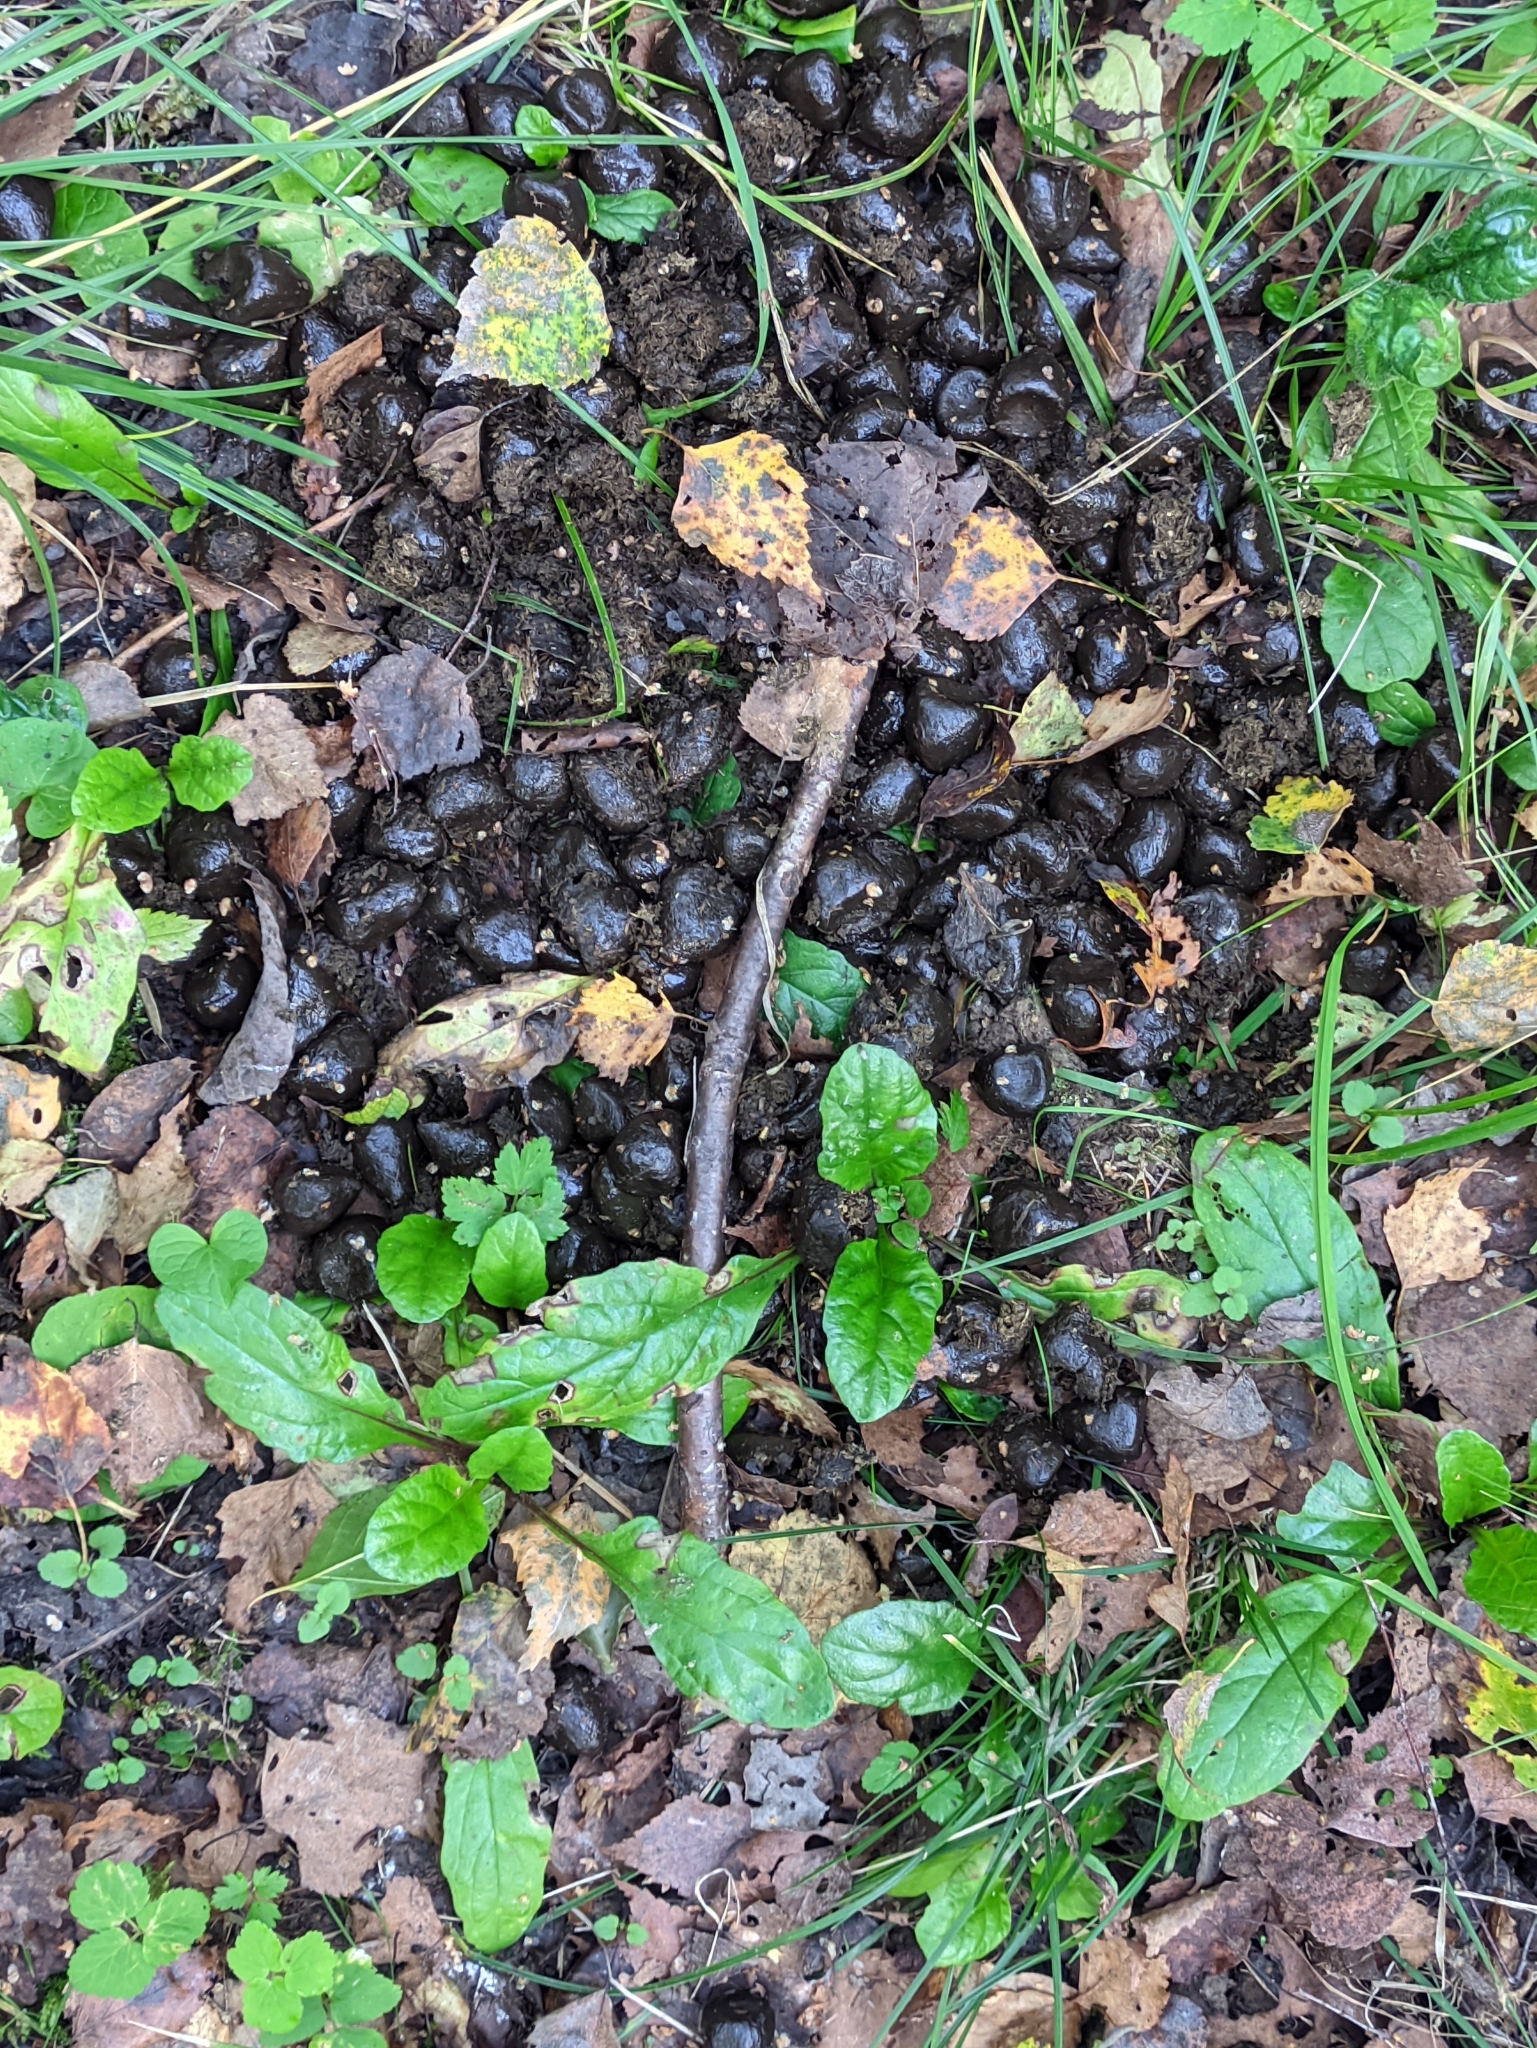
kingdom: Animalia
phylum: Chordata
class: Mammalia
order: Artiodactyla
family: Cervidae
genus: Alces
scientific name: Alces alces
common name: Moose
